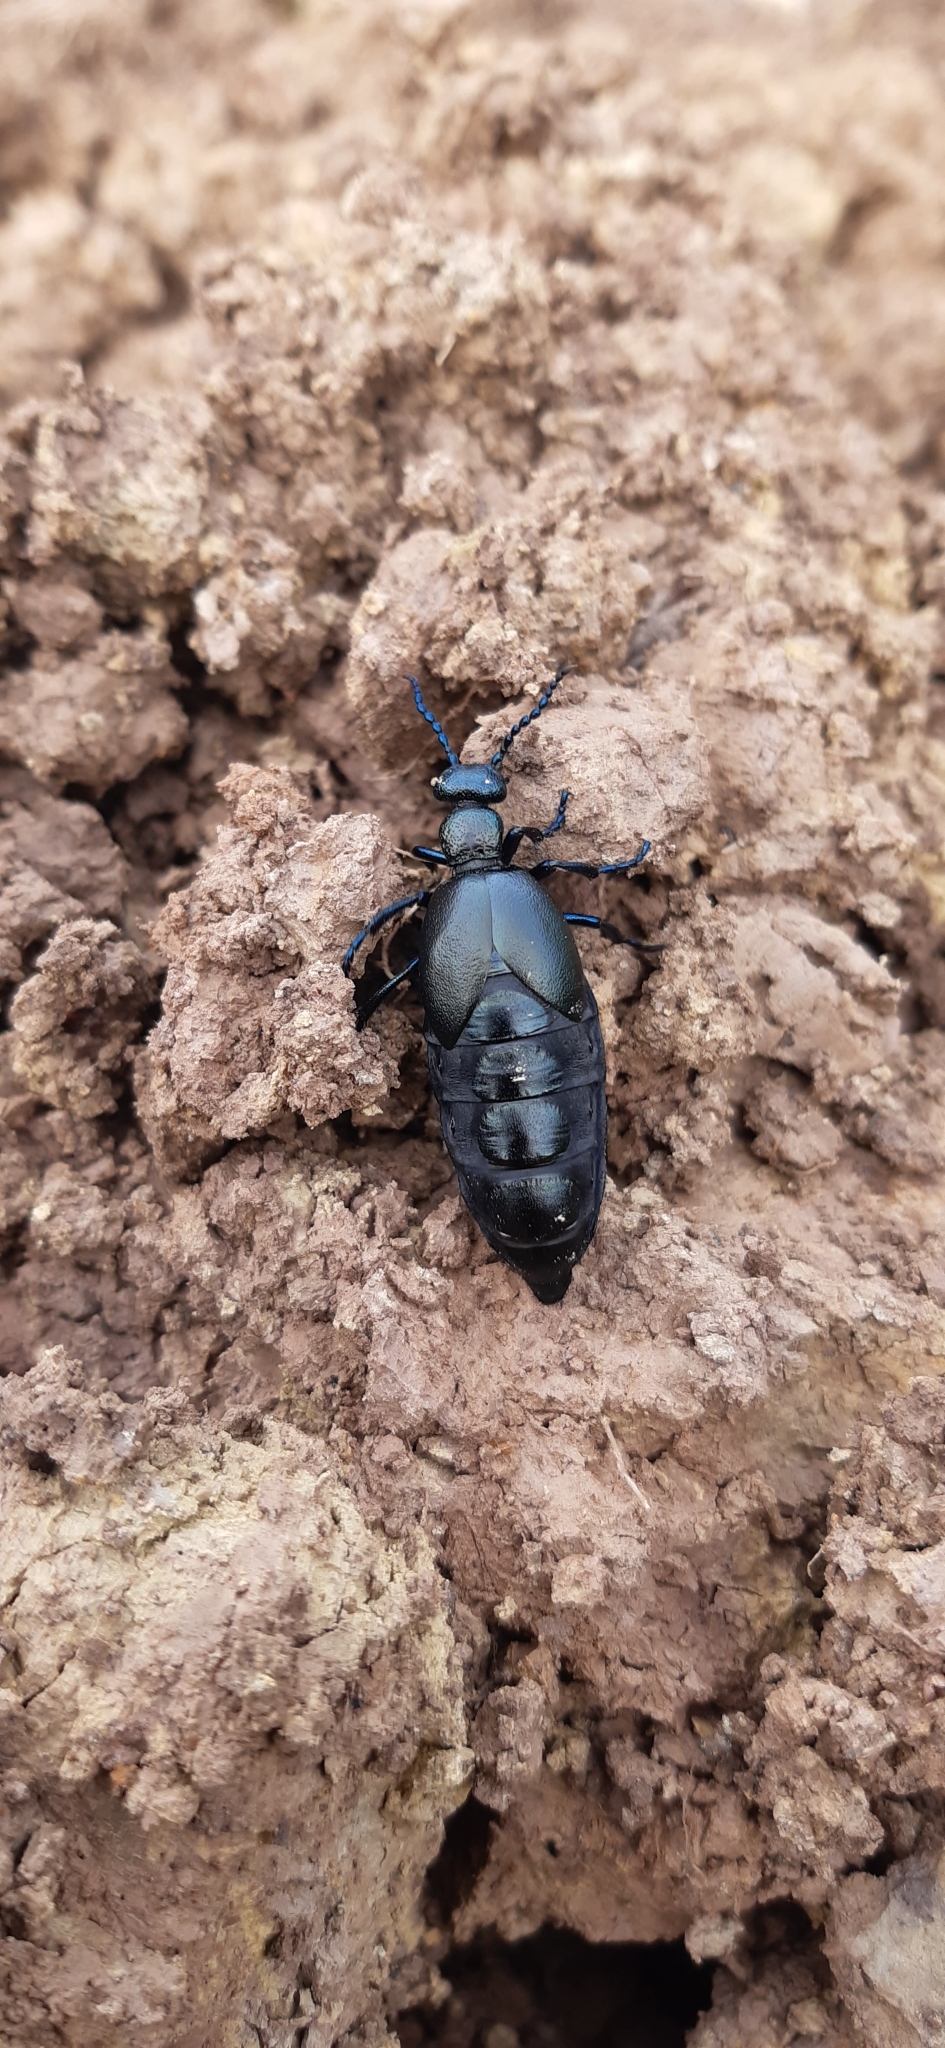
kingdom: Animalia
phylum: Arthropoda
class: Insecta
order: Coleoptera
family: Meloidae
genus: Meloe
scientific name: Meloe proscarabaeus
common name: Black oil-beetle
